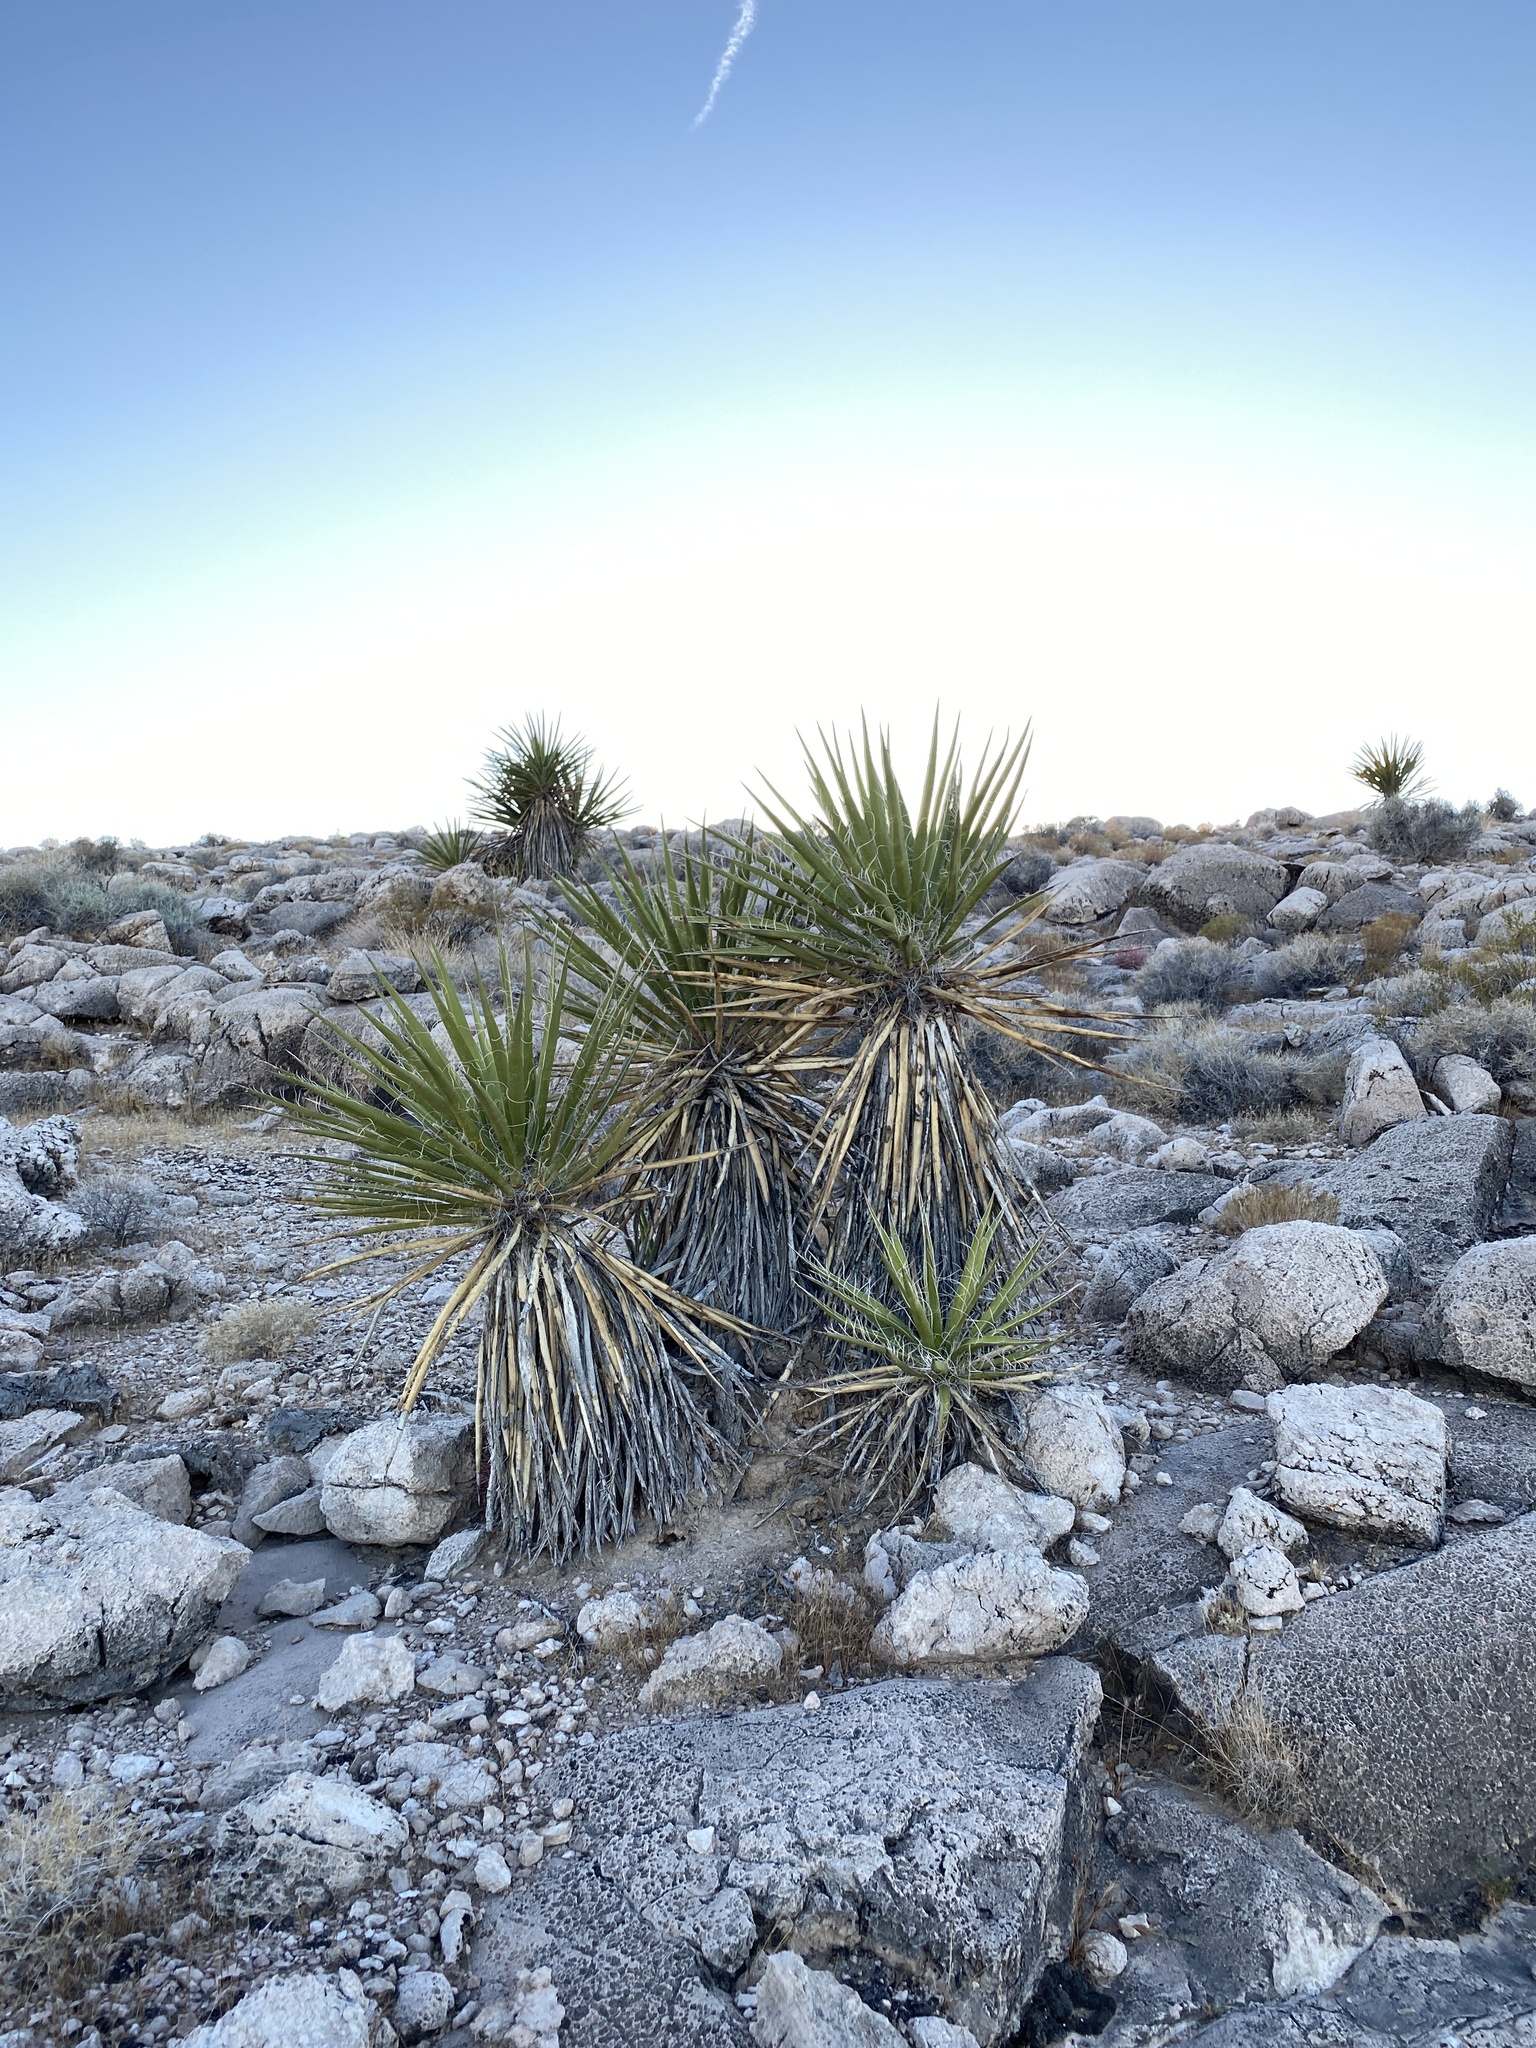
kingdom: Plantae
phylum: Tracheophyta
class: Liliopsida
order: Asparagales
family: Asparagaceae
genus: Yucca
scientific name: Yucca schidigera
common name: Mojave yucca
